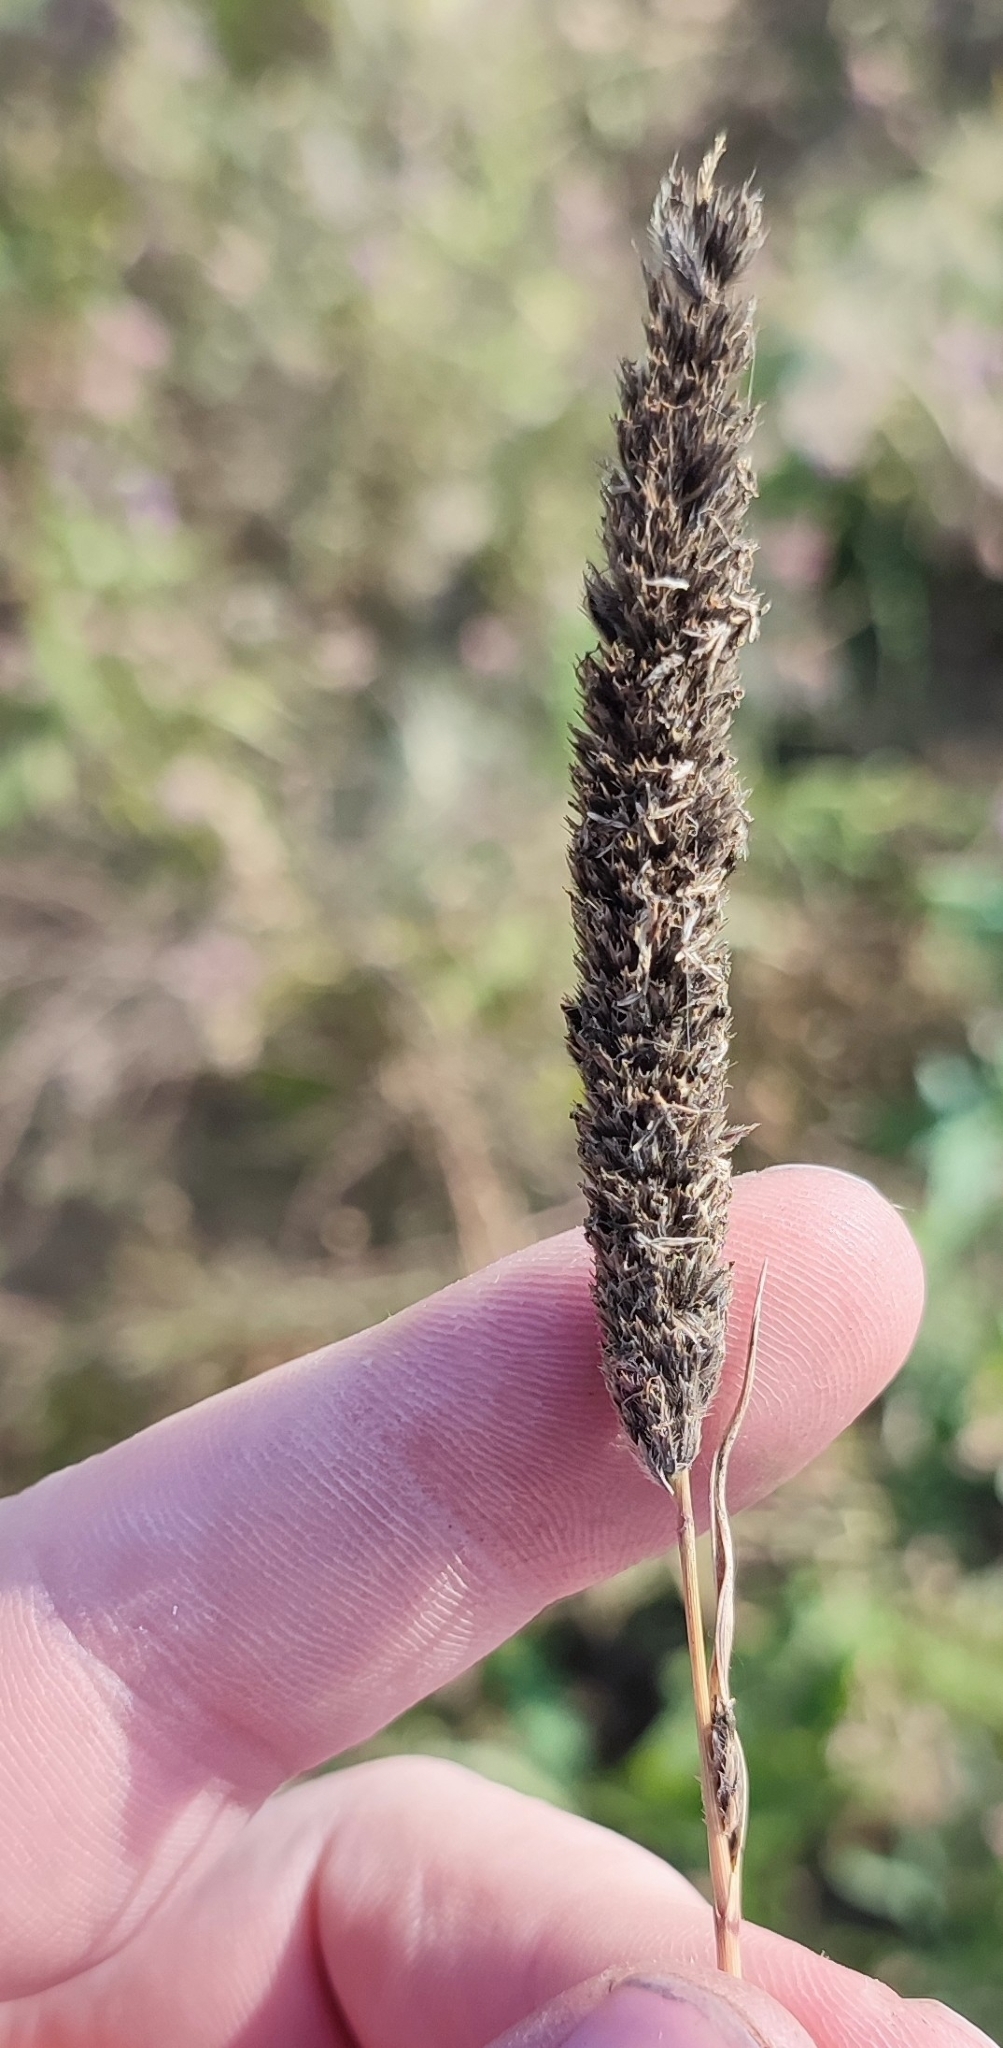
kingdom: Plantae
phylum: Tracheophyta
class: Liliopsida
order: Poales
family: Poaceae
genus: Alopecurus
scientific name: Alopecurus arundinaceus
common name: Creeping meadow foxtail
